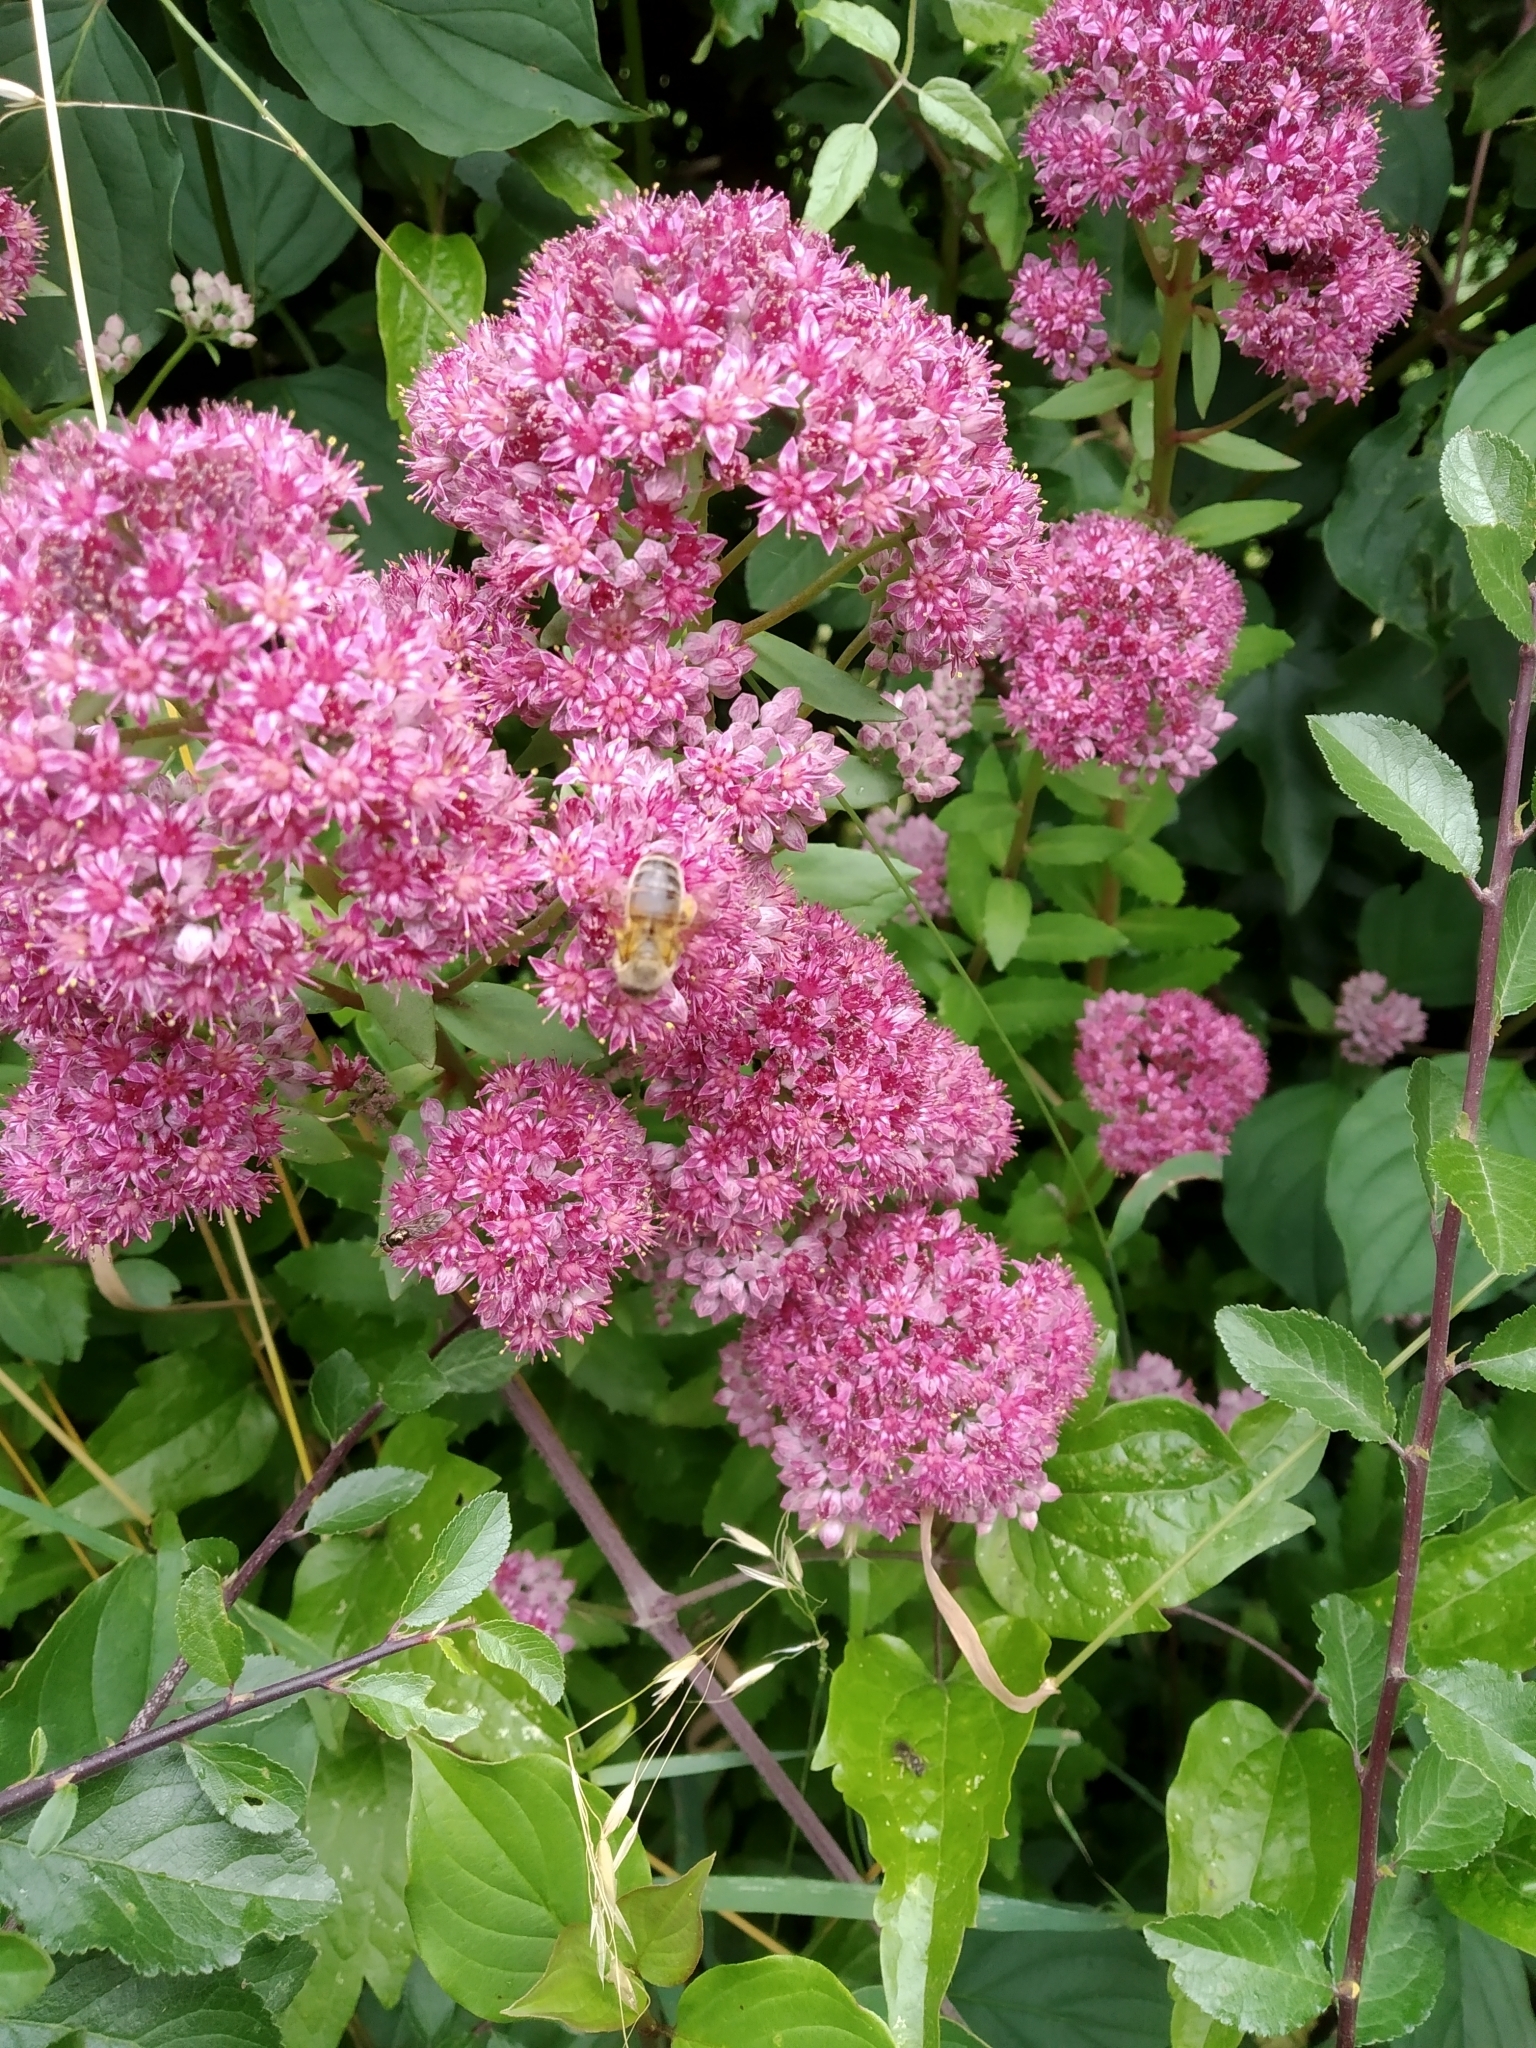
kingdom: Plantae
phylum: Tracheophyta
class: Magnoliopsida
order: Saxifragales
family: Crassulaceae
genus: Hylotelephium
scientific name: Hylotelephium telephium
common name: Live-forever
